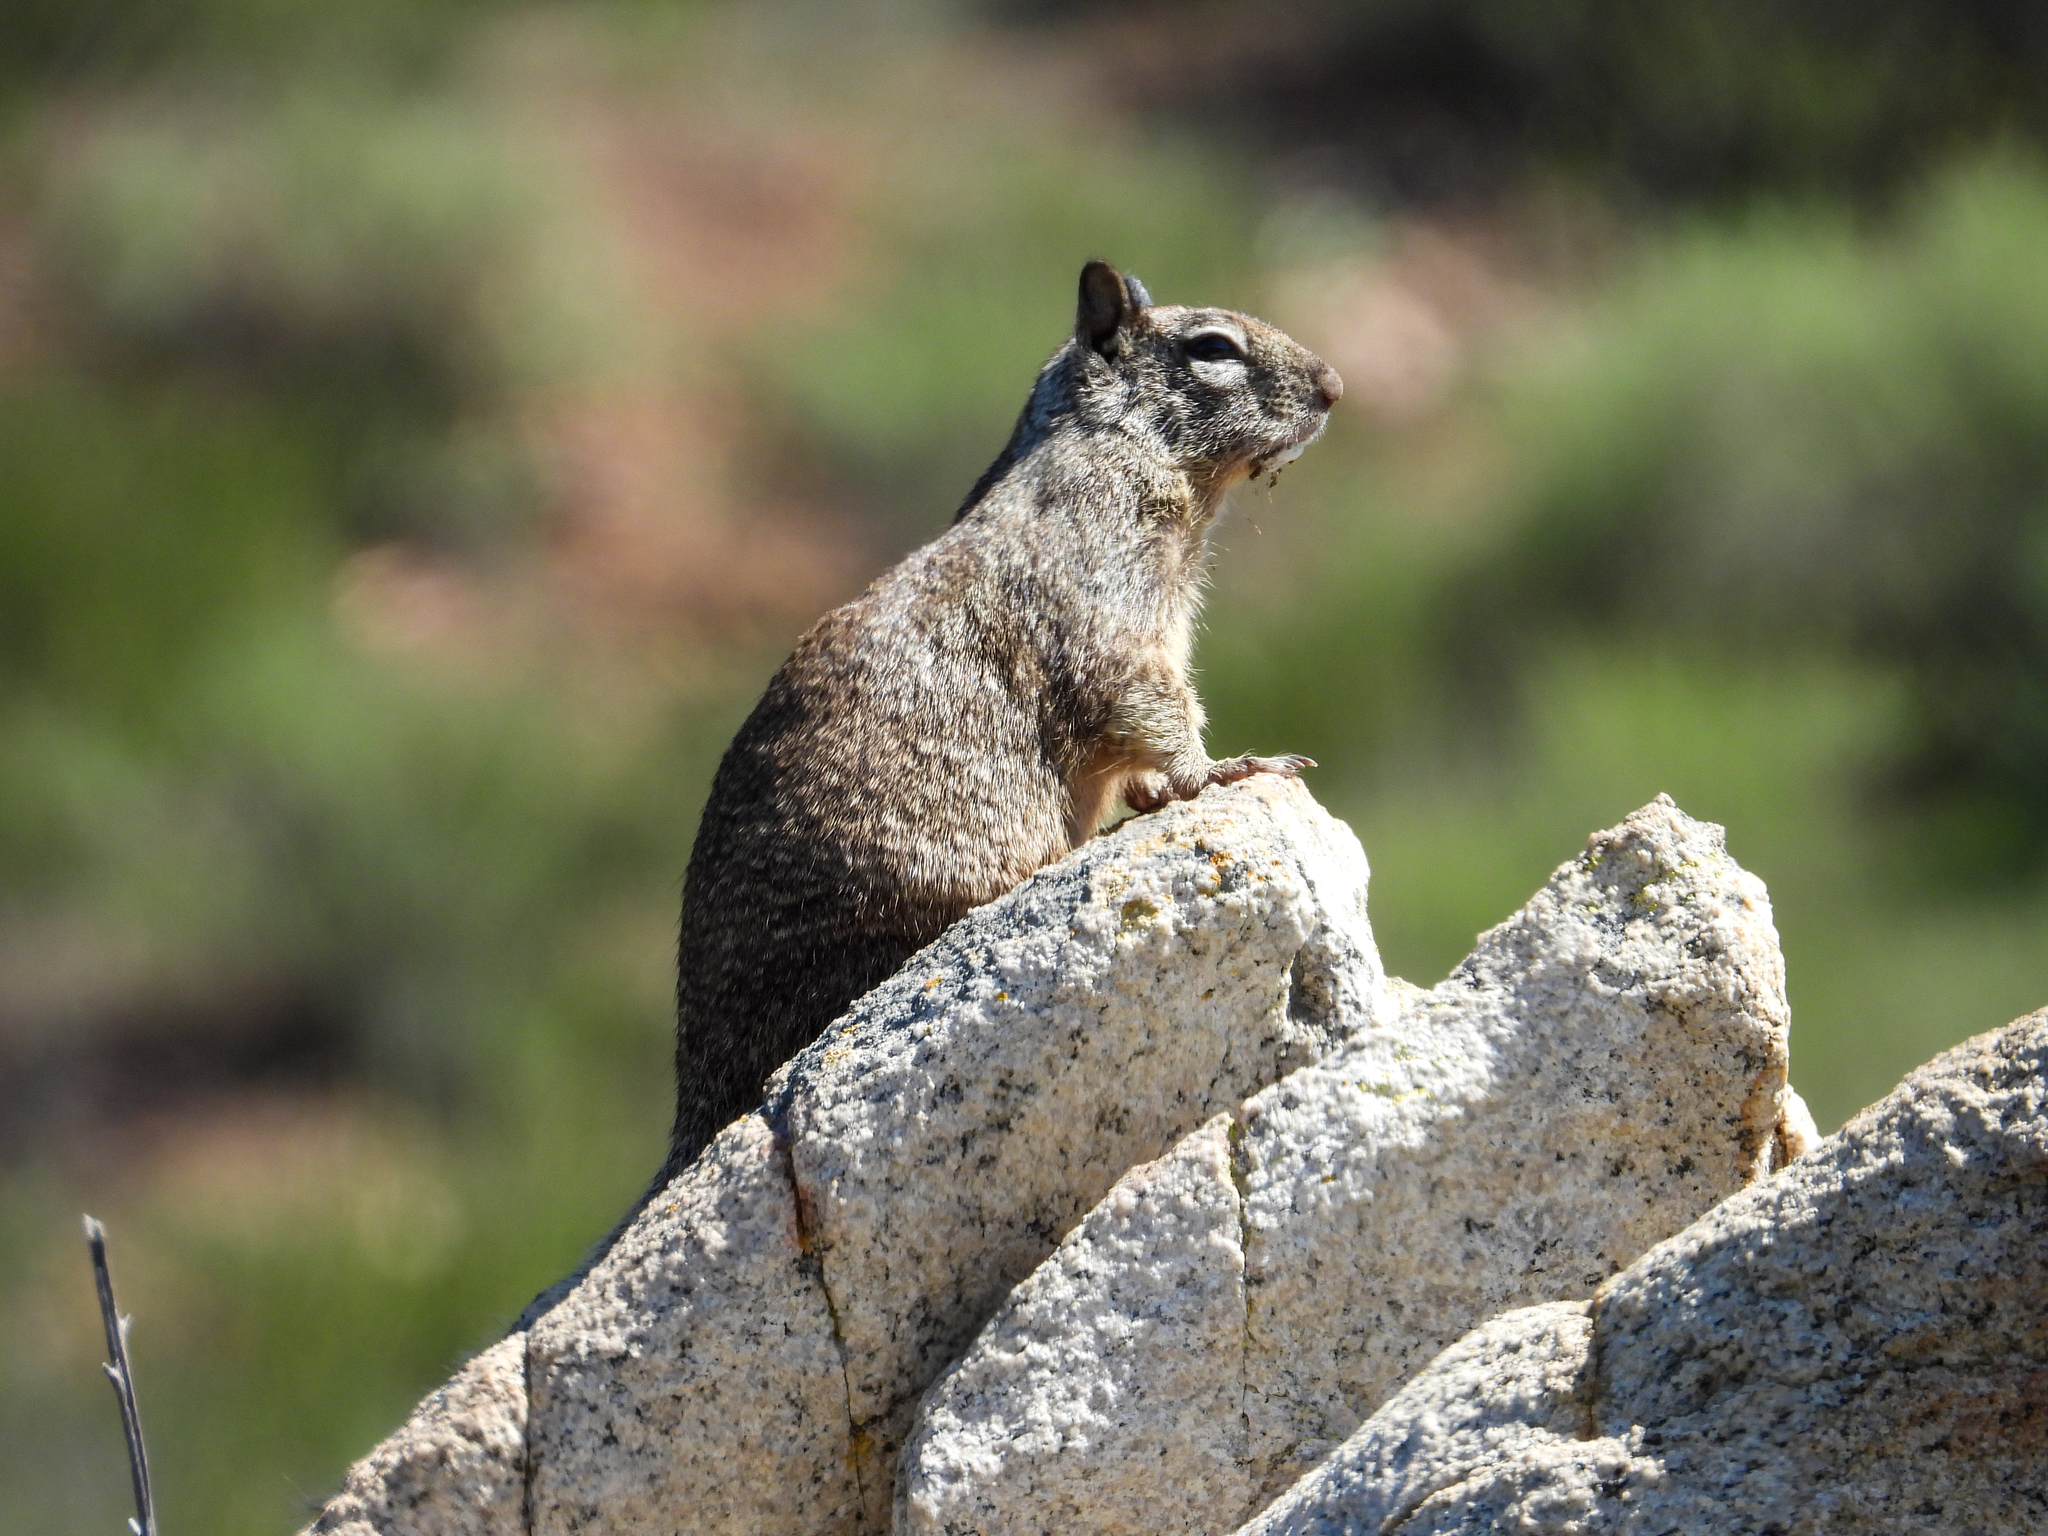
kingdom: Animalia
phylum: Chordata
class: Mammalia
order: Rodentia
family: Sciuridae
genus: Otospermophilus
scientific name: Otospermophilus beecheyi
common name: California ground squirrel
